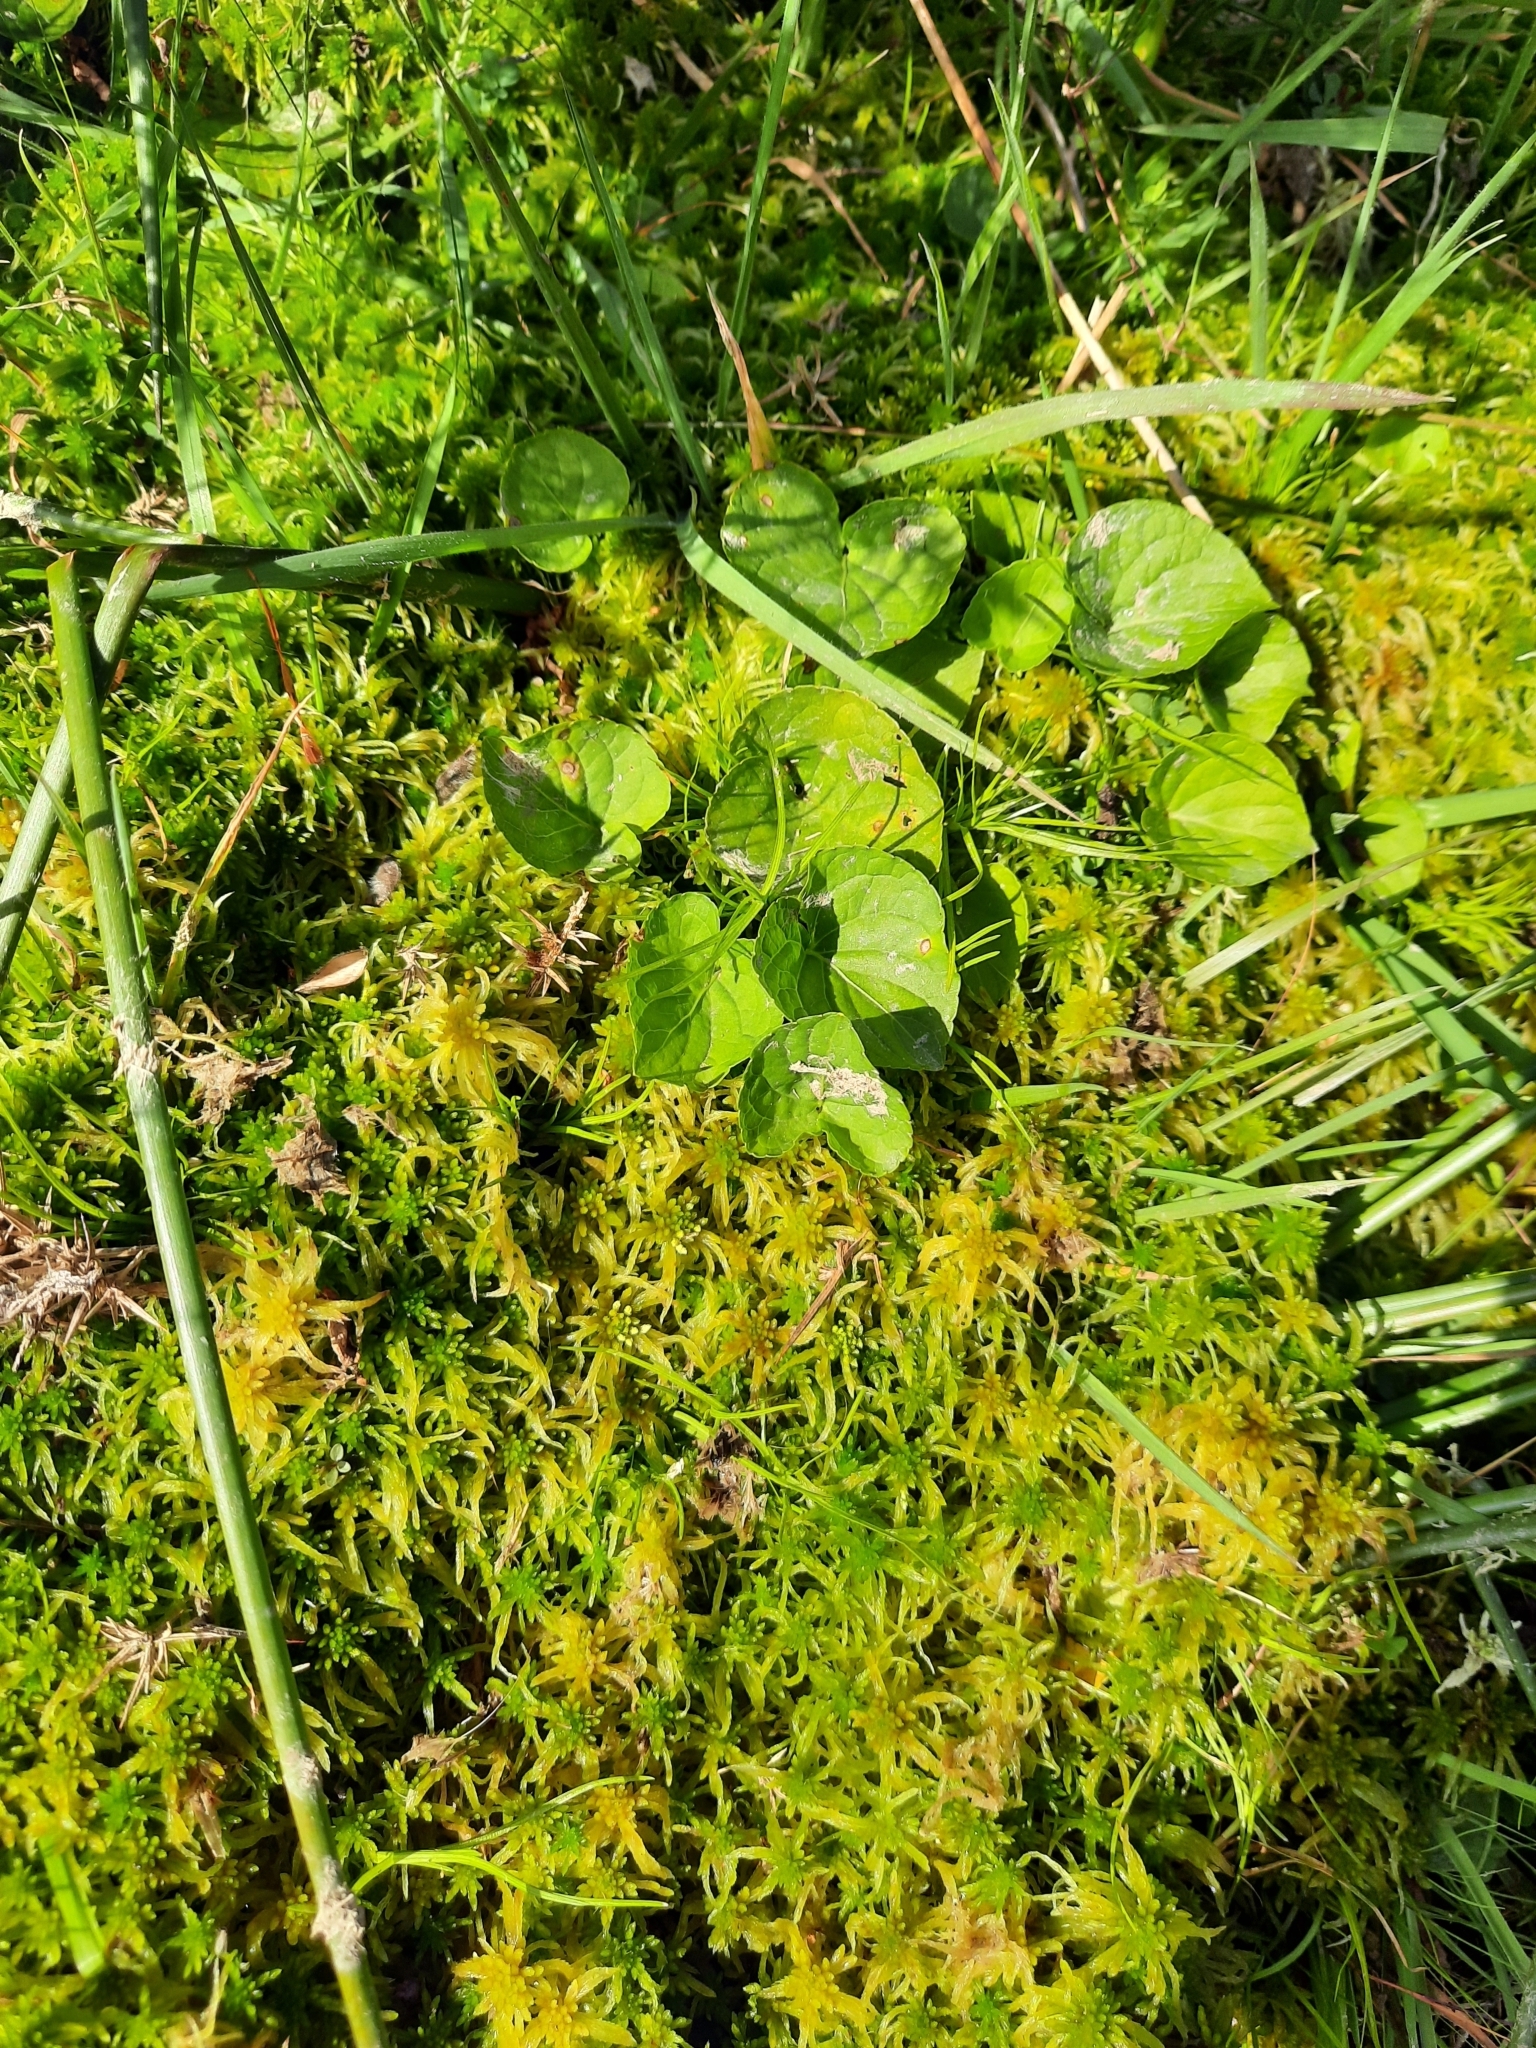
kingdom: Plantae
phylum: Tracheophyta
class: Magnoliopsida
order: Malpighiales
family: Violaceae
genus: Viola
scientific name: Viola palustris
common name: Marsh violet
